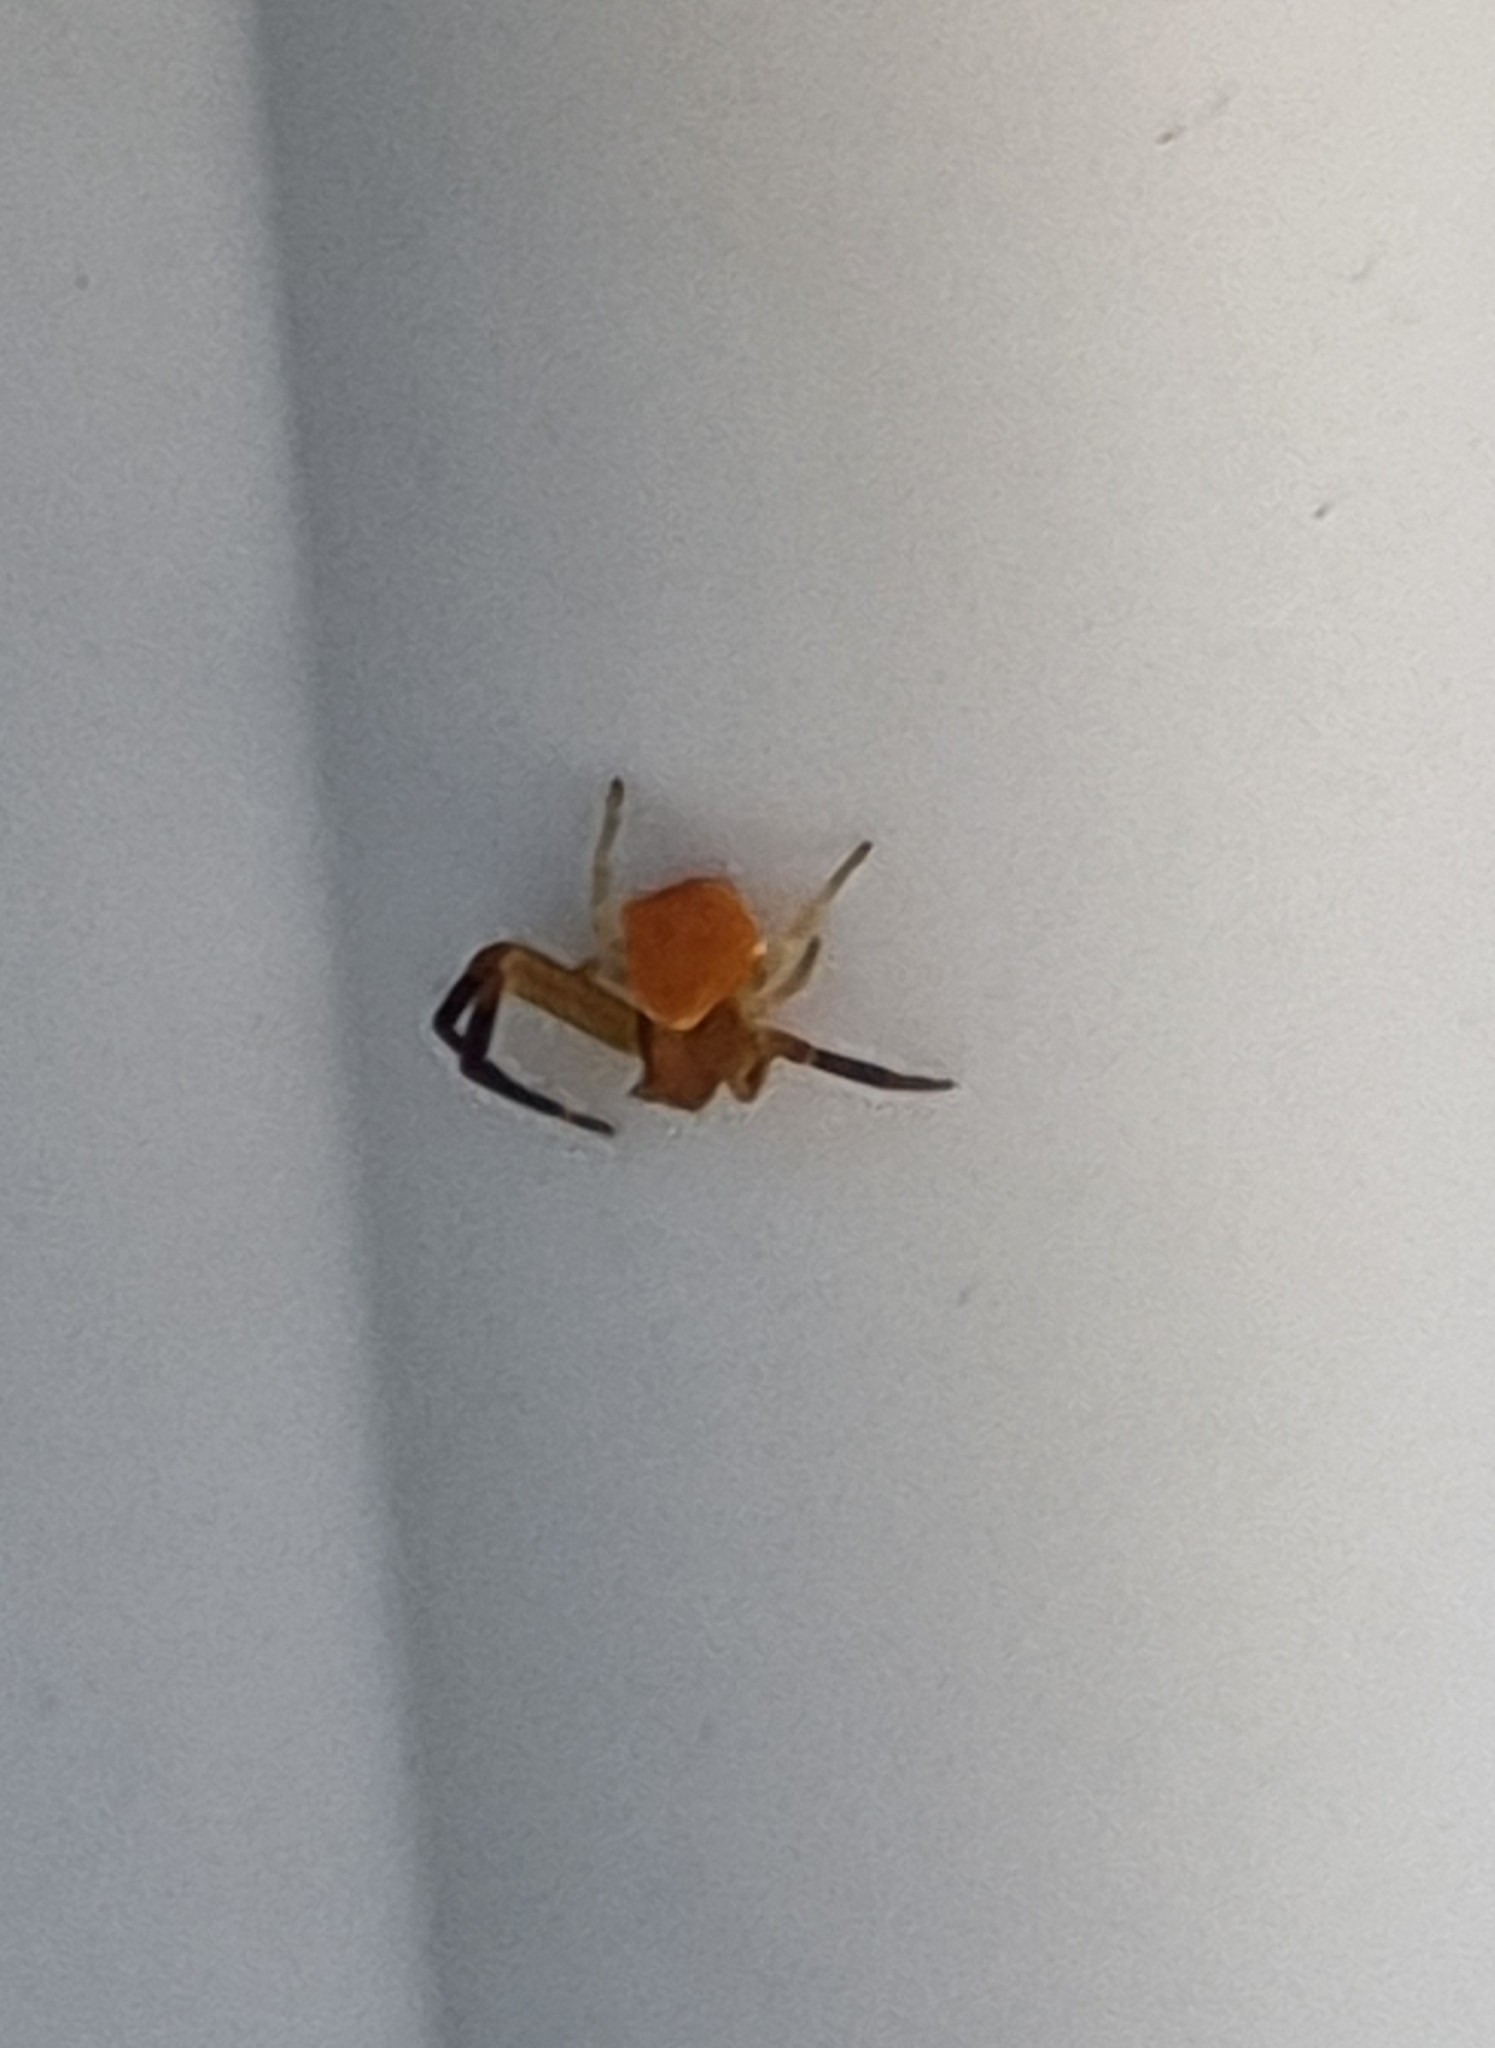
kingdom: Animalia
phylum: Arthropoda
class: Arachnida
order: Araneae
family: Thomisidae
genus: Thomisus
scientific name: Thomisus onustus
